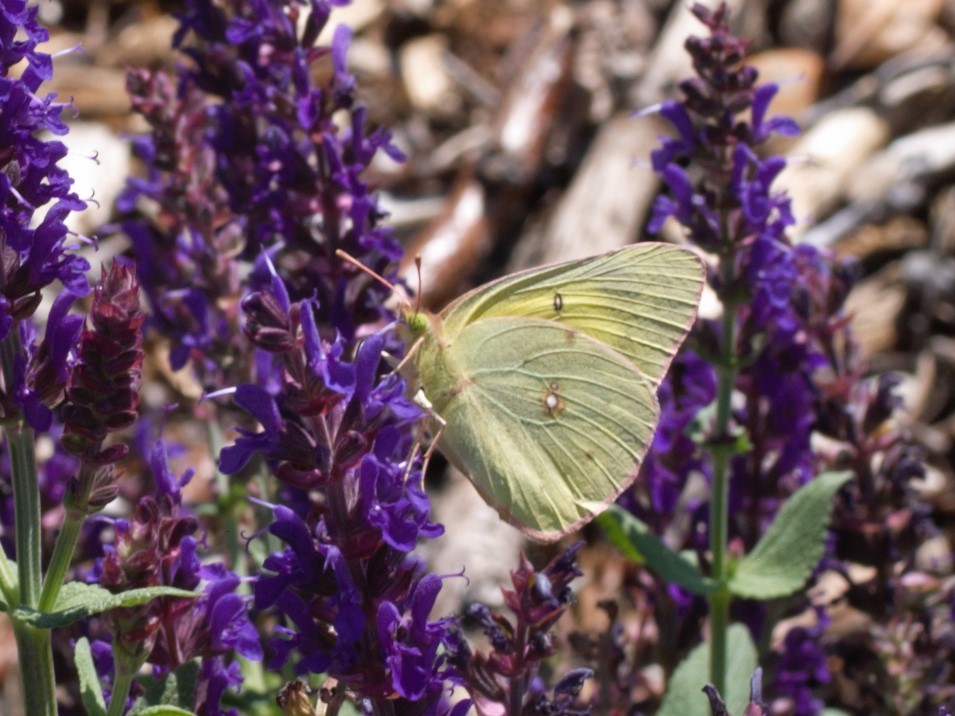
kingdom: Animalia
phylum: Arthropoda
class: Insecta
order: Lepidoptera
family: Pieridae
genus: Colias
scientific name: Colias philodice
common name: Clouded sulphur
